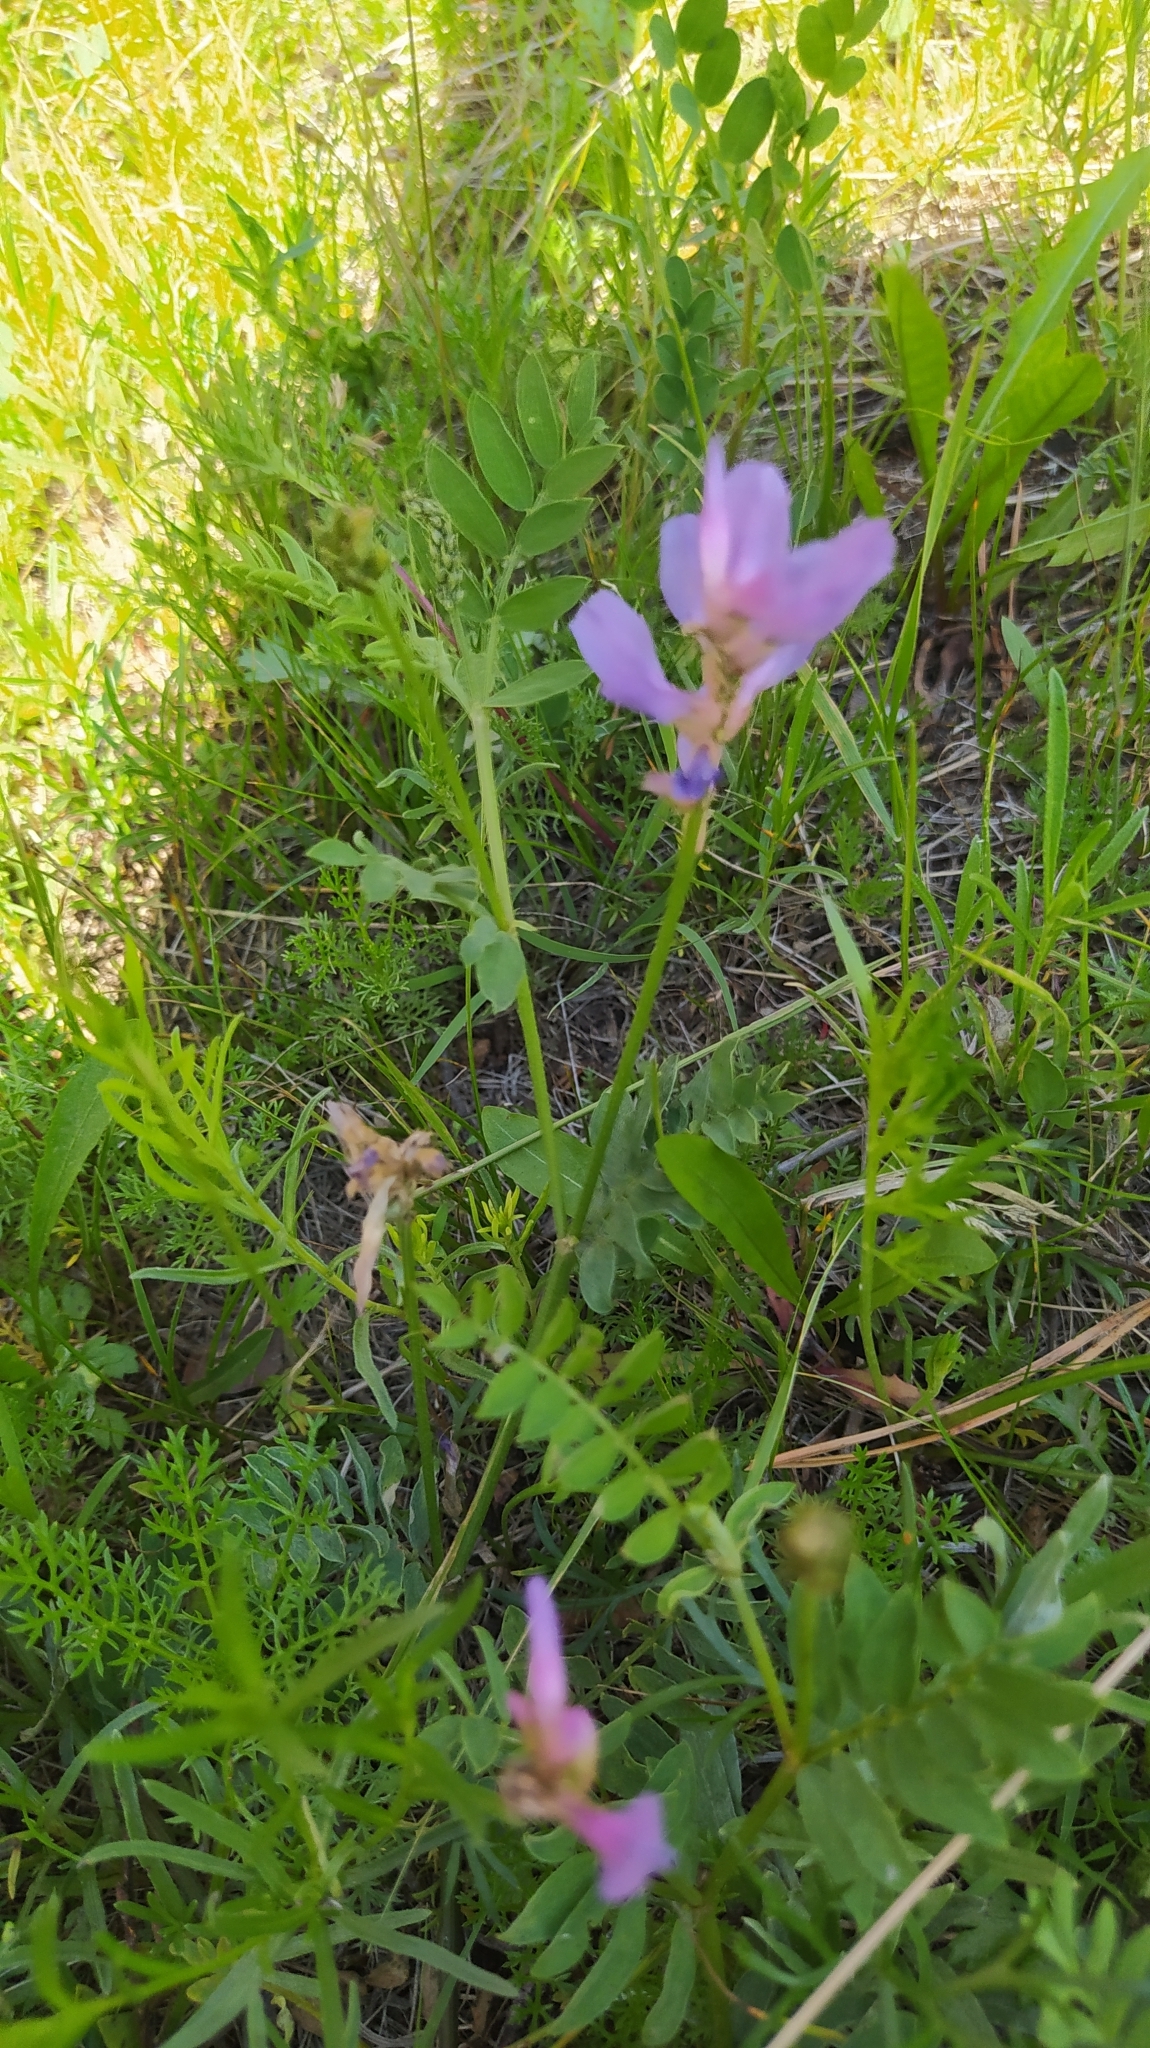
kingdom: Plantae
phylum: Tracheophyta
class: Magnoliopsida
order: Fabales
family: Fabaceae
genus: Astragalus
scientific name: Astragalus laxmannii
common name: Laxmann's milk-vetch
